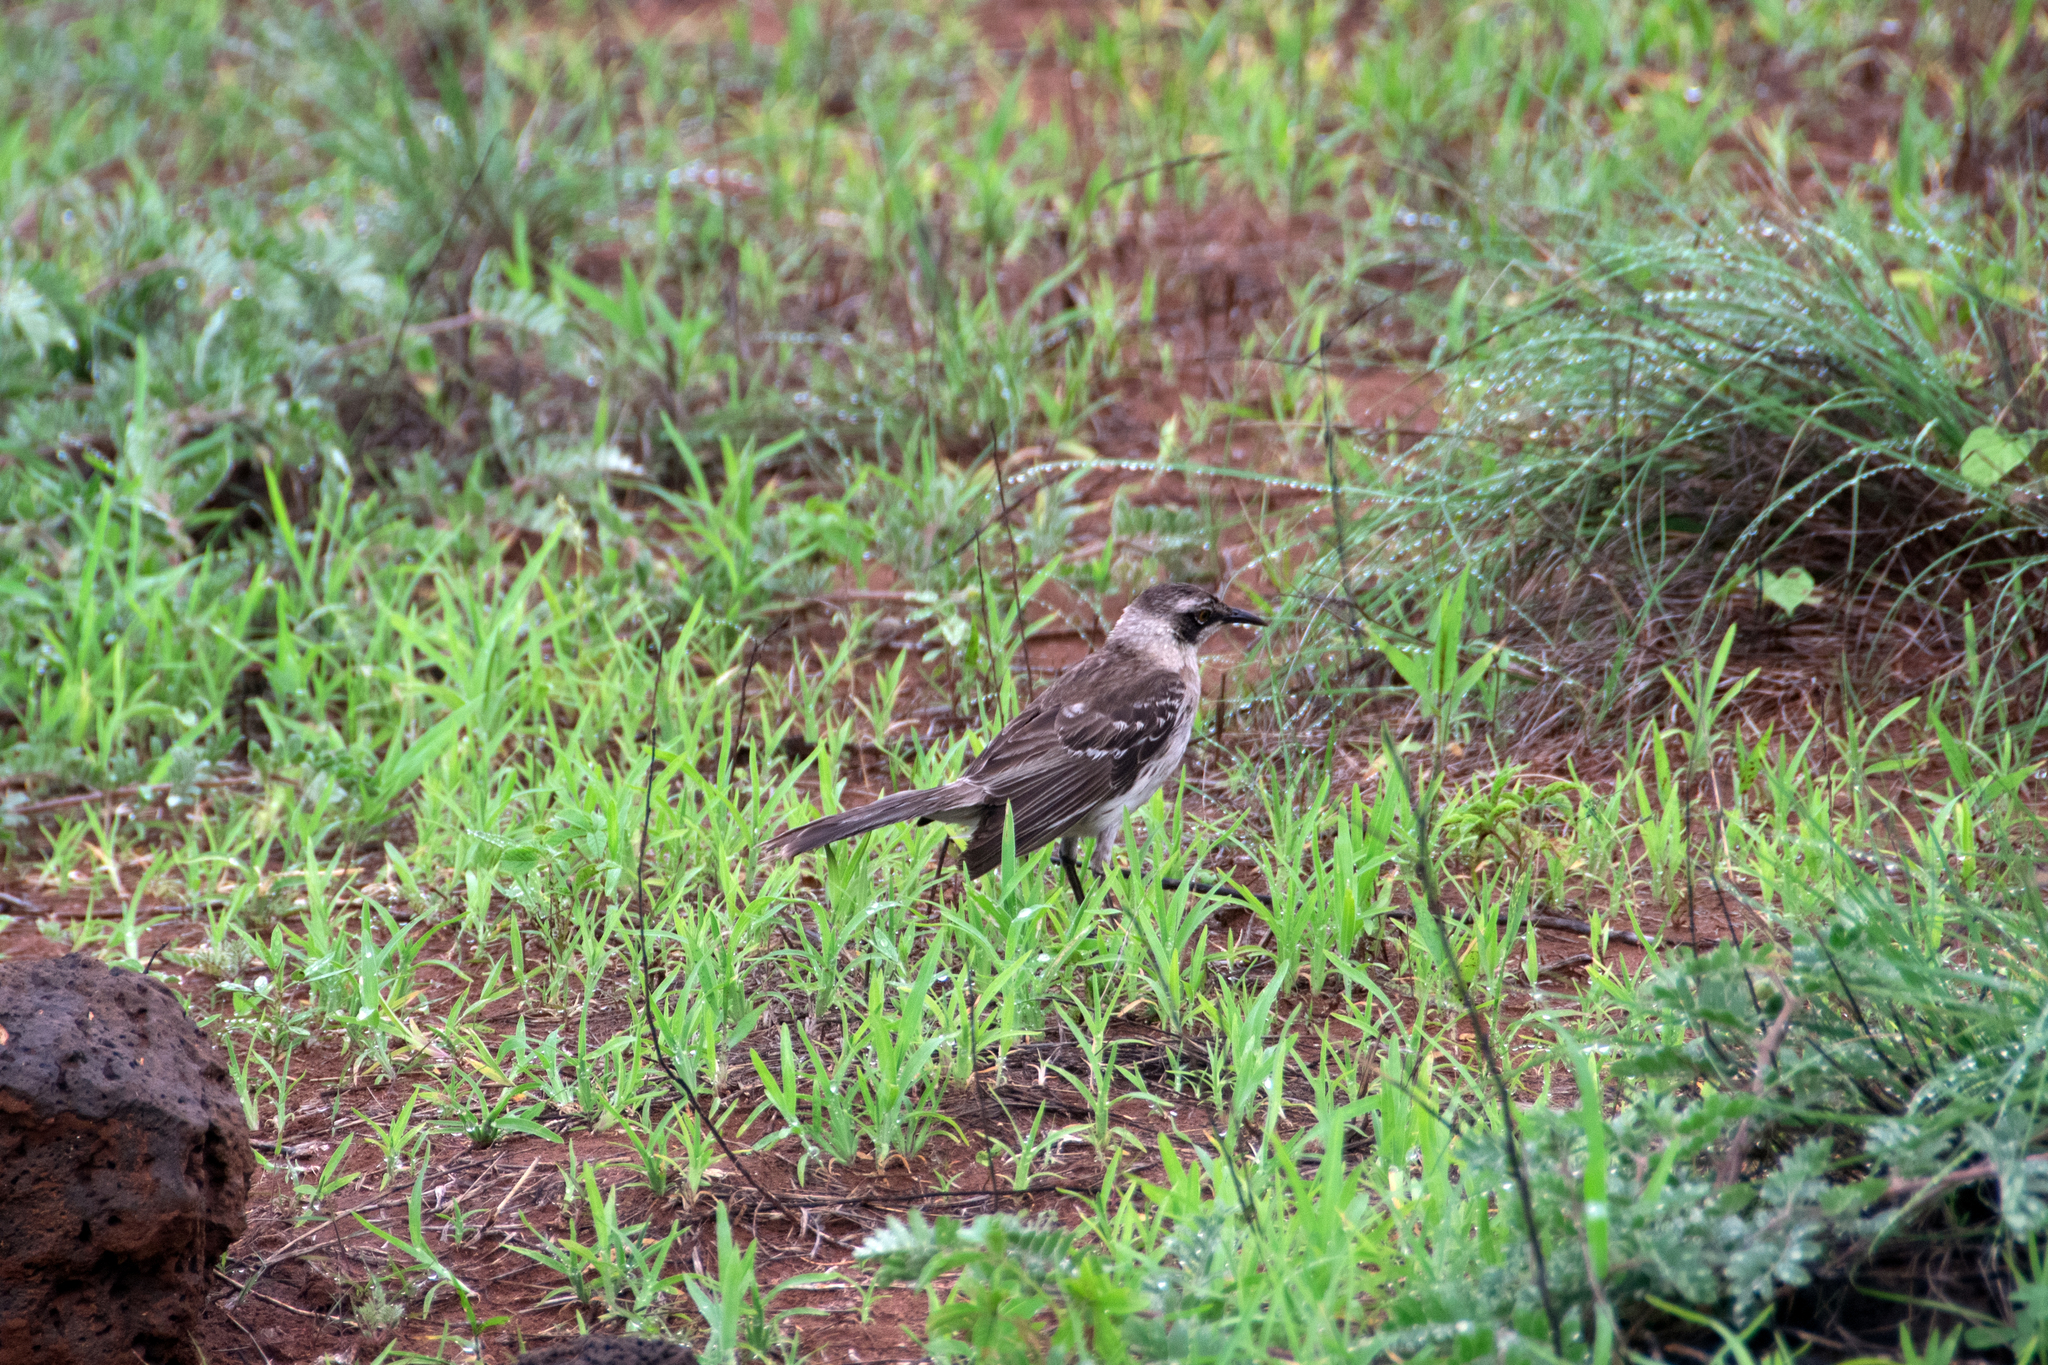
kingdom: Animalia
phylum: Chordata
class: Aves
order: Passeriformes
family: Mimidae
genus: Mimus
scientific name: Mimus parvulus
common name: Galapagos mockingbird
